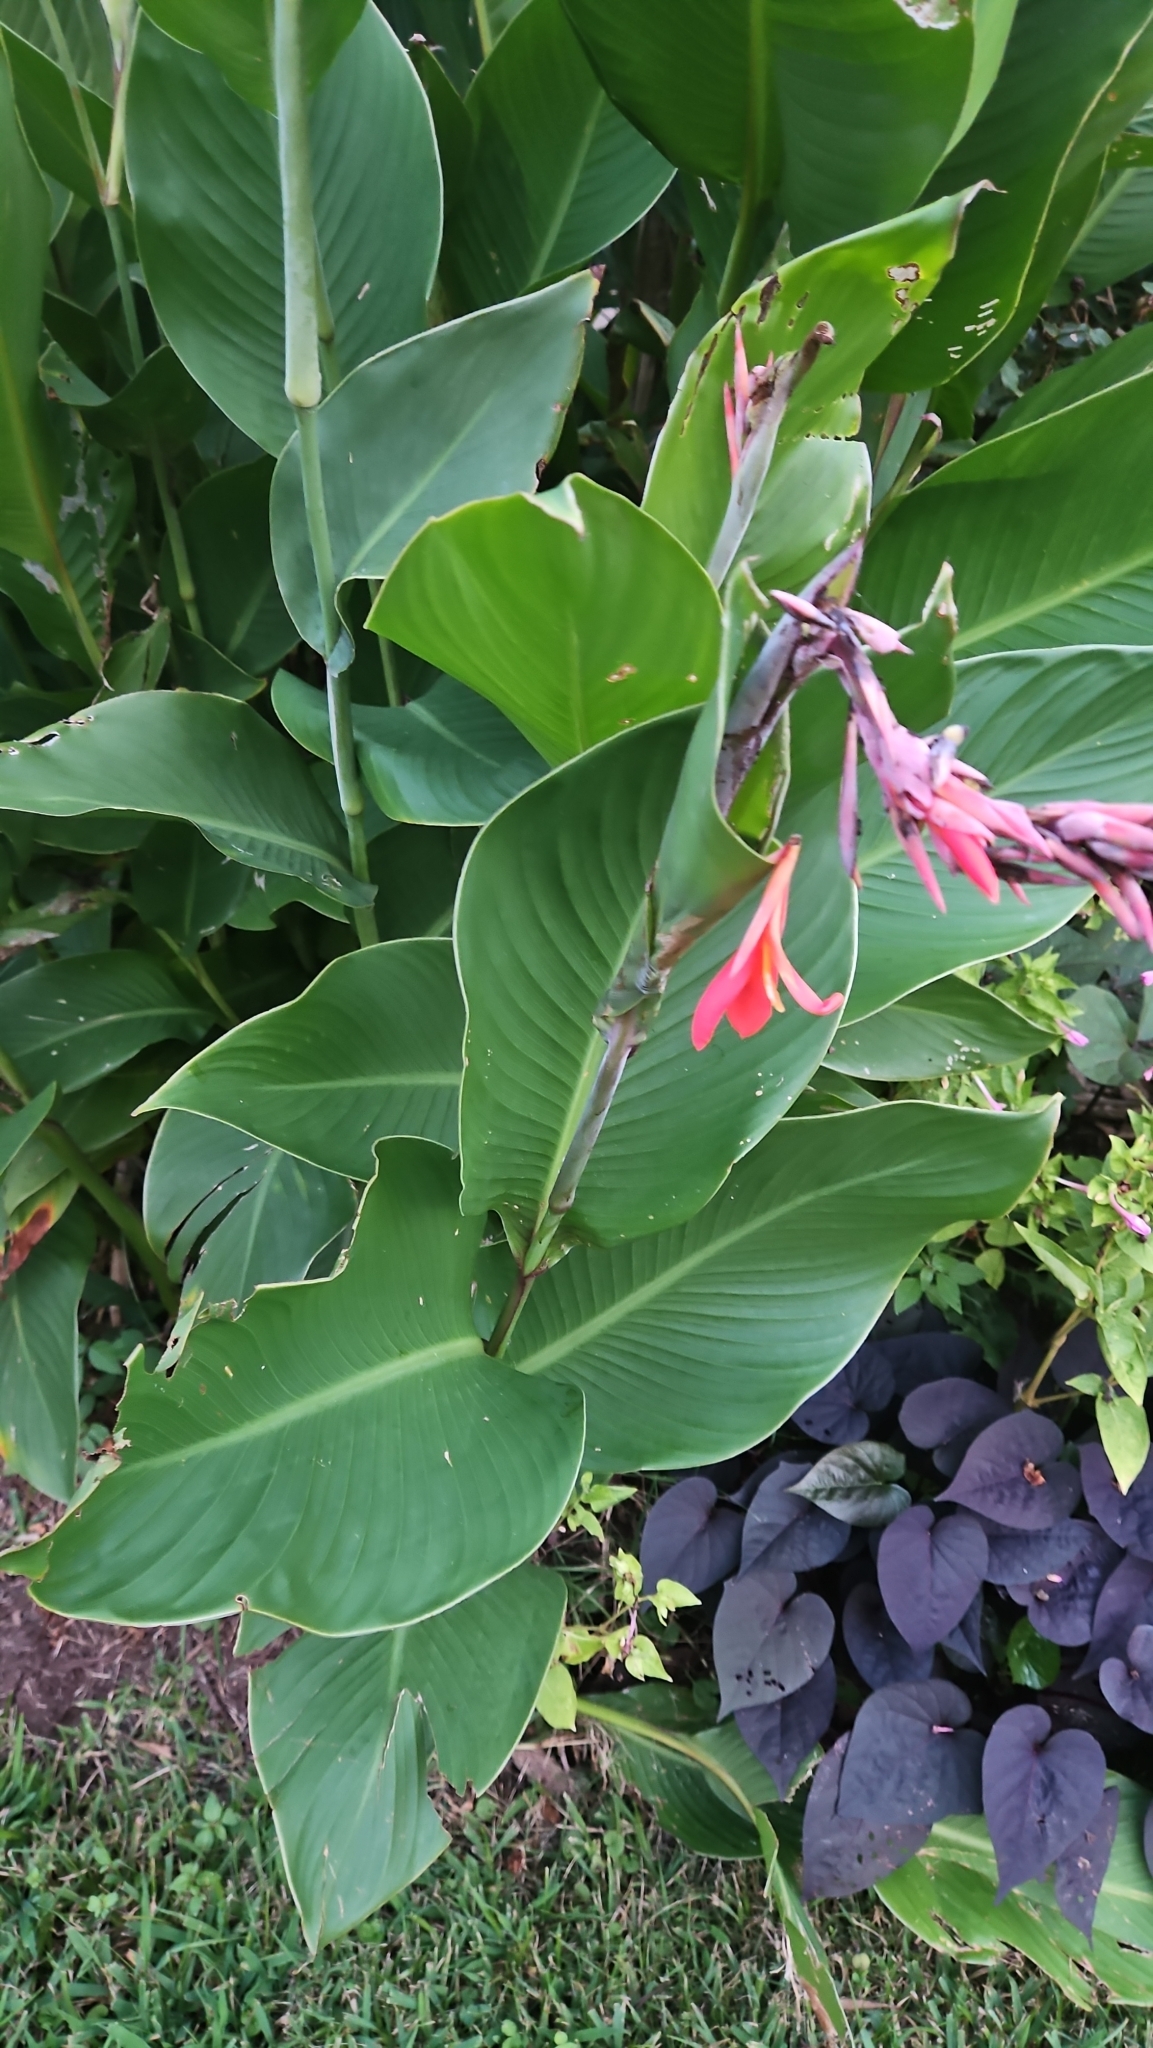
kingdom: Plantae
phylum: Tracheophyta
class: Liliopsida
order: Zingiberales
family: Cannaceae
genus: Canna
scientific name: Canna indica
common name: Indian shot
